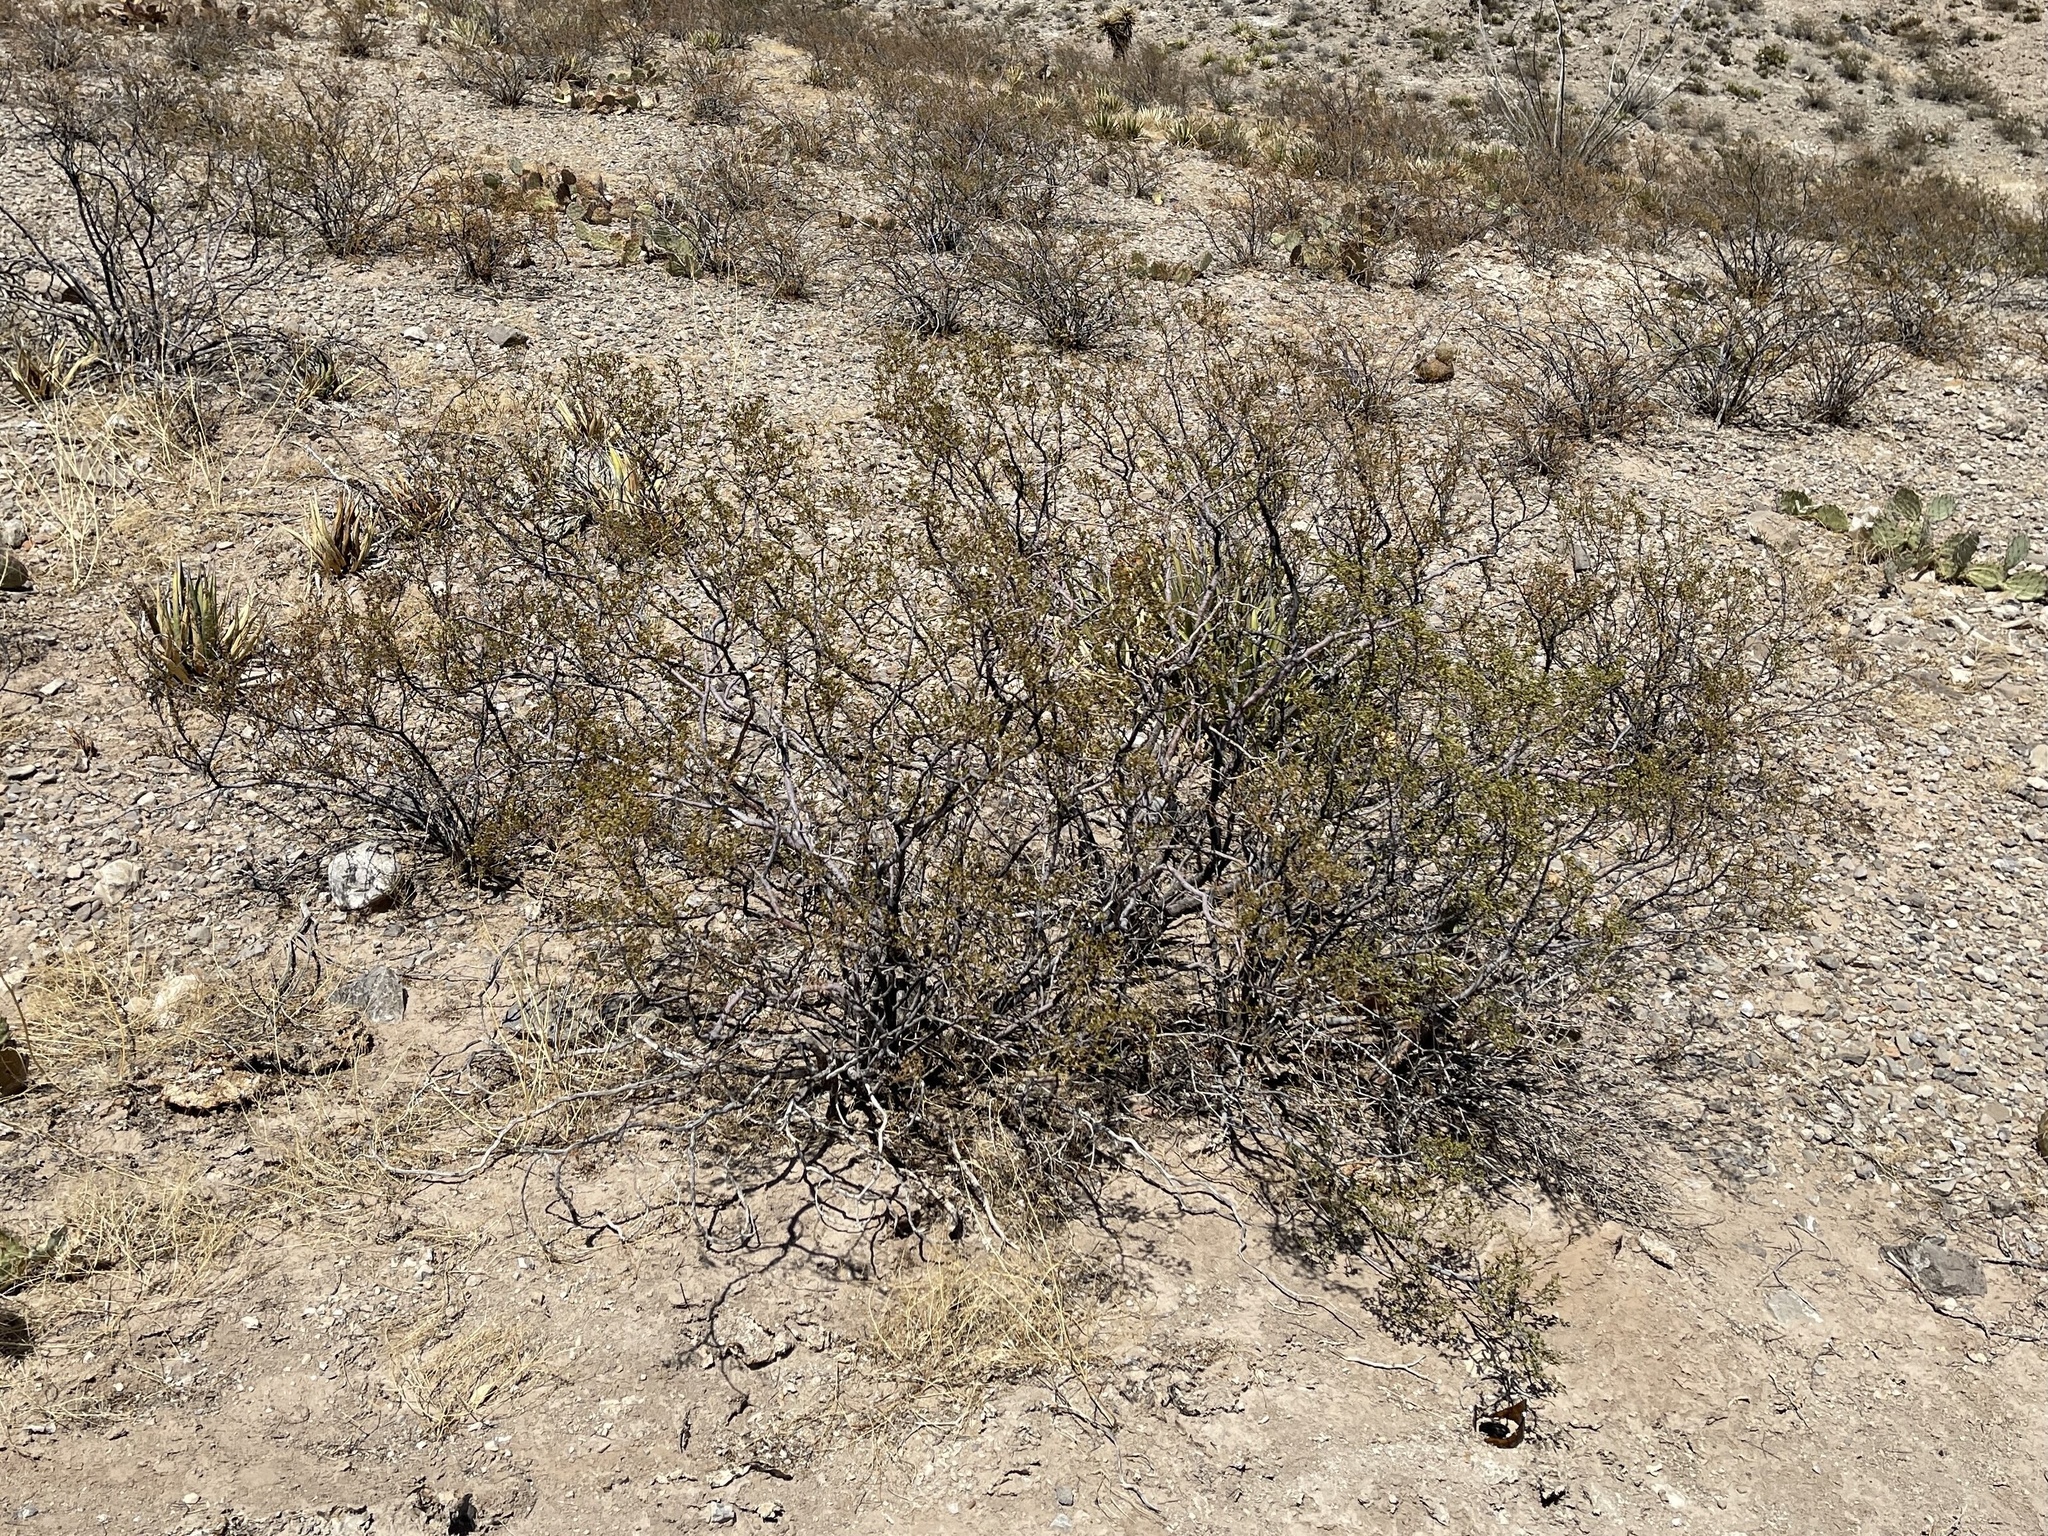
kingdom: Plantae
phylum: Tracheophyta
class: Magnoliopsida
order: Zygophyllales
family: Zygophyllaceae
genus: Larrea
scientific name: Larrea tridentata
